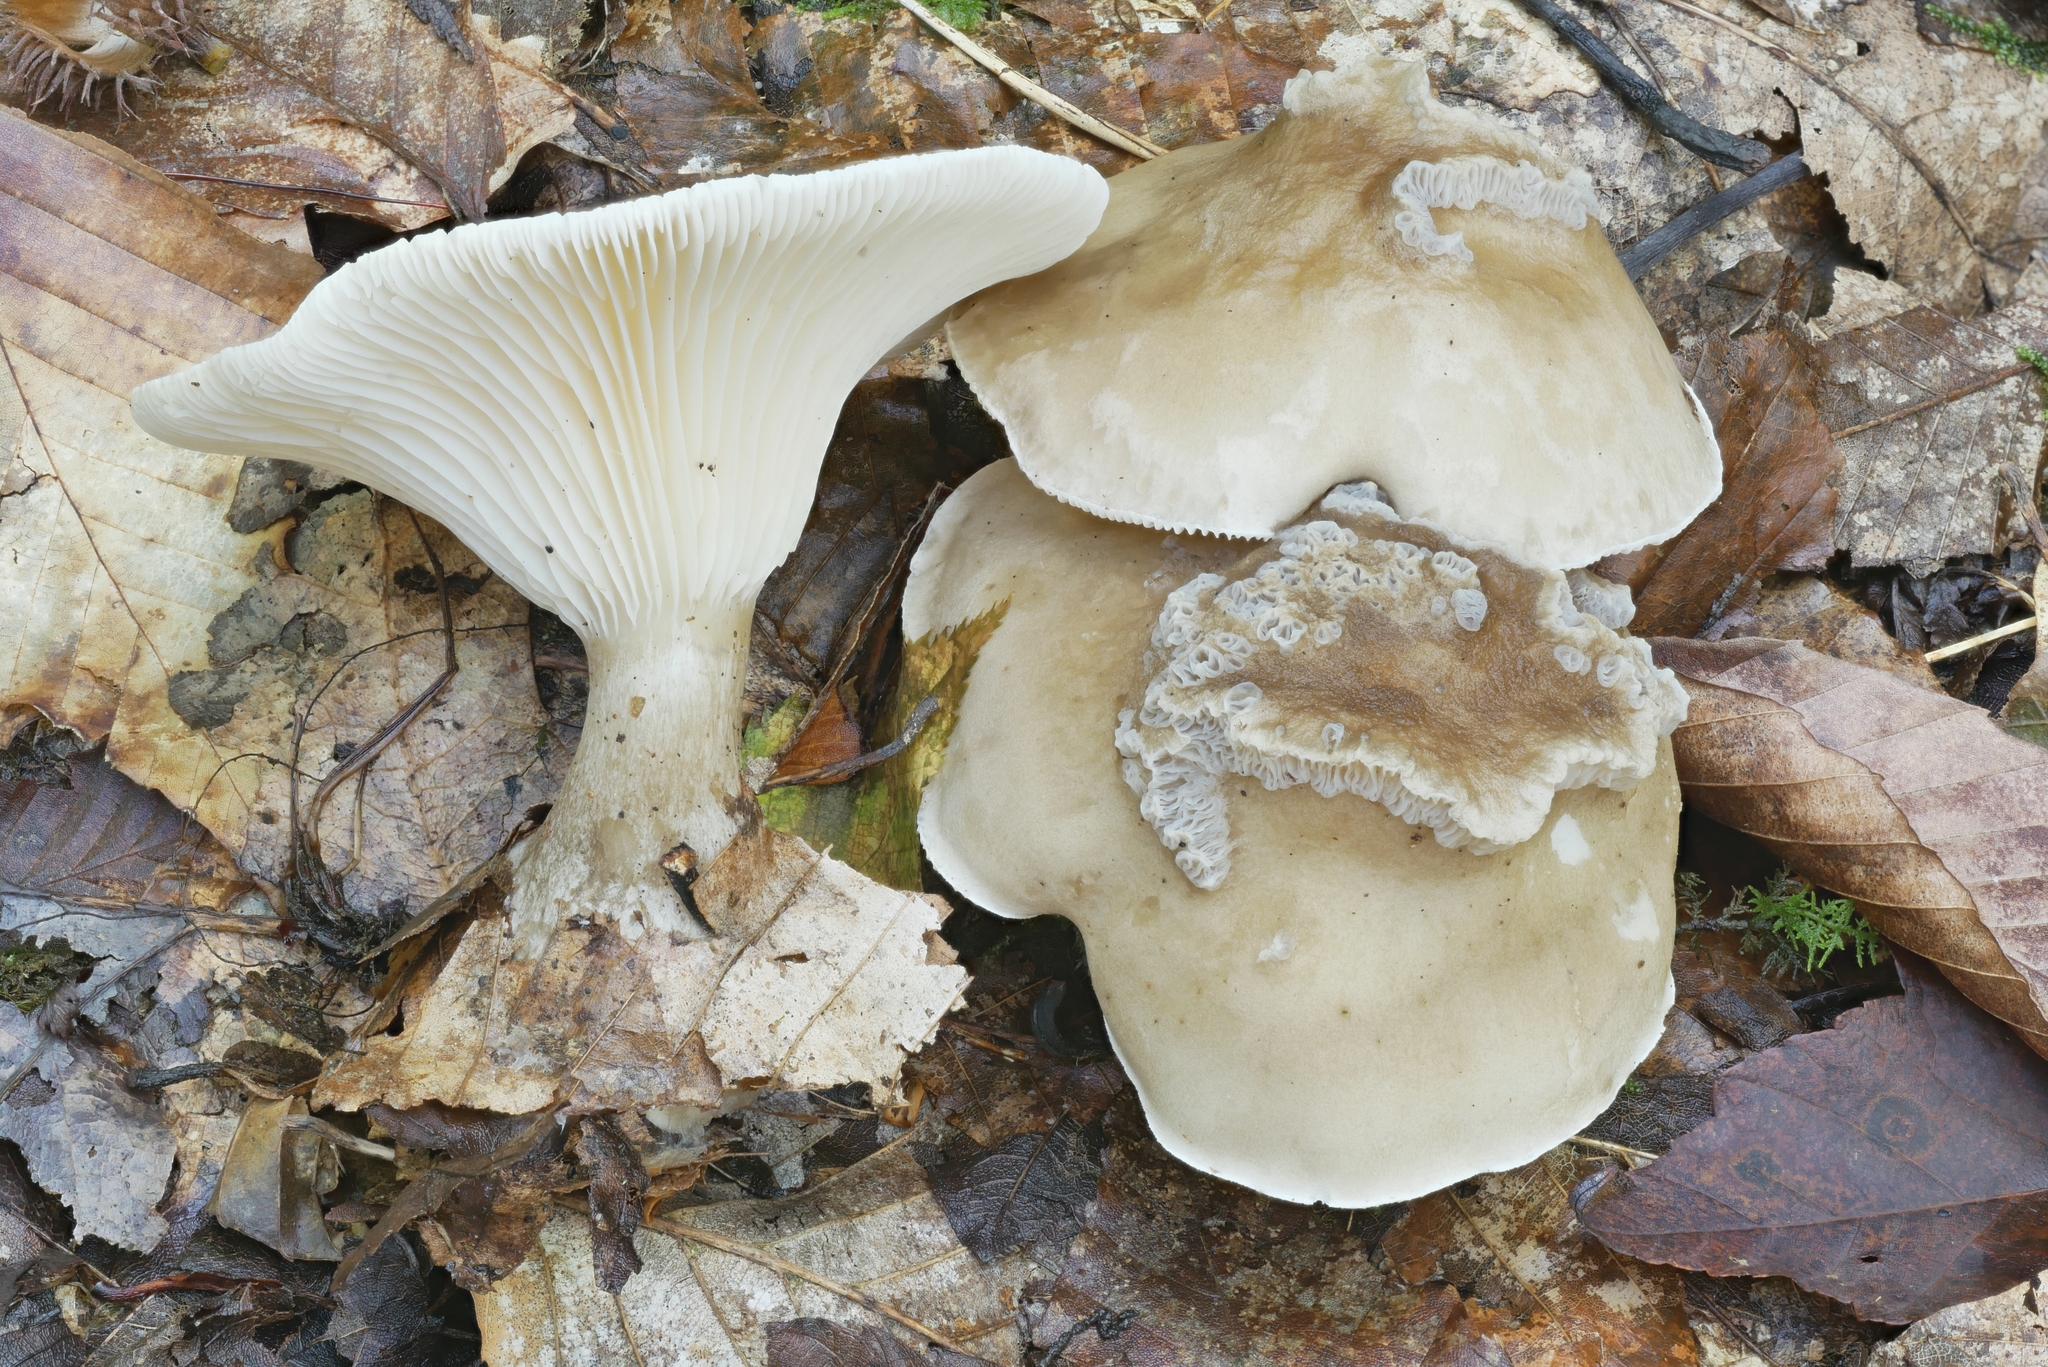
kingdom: Fungi
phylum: Basidiomycota
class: Agaricomycetes
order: Agaricales
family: Hygrophoraceae
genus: Ampulloclitocybe
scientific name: Ampulloclitocybe clavipes
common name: Club foot
